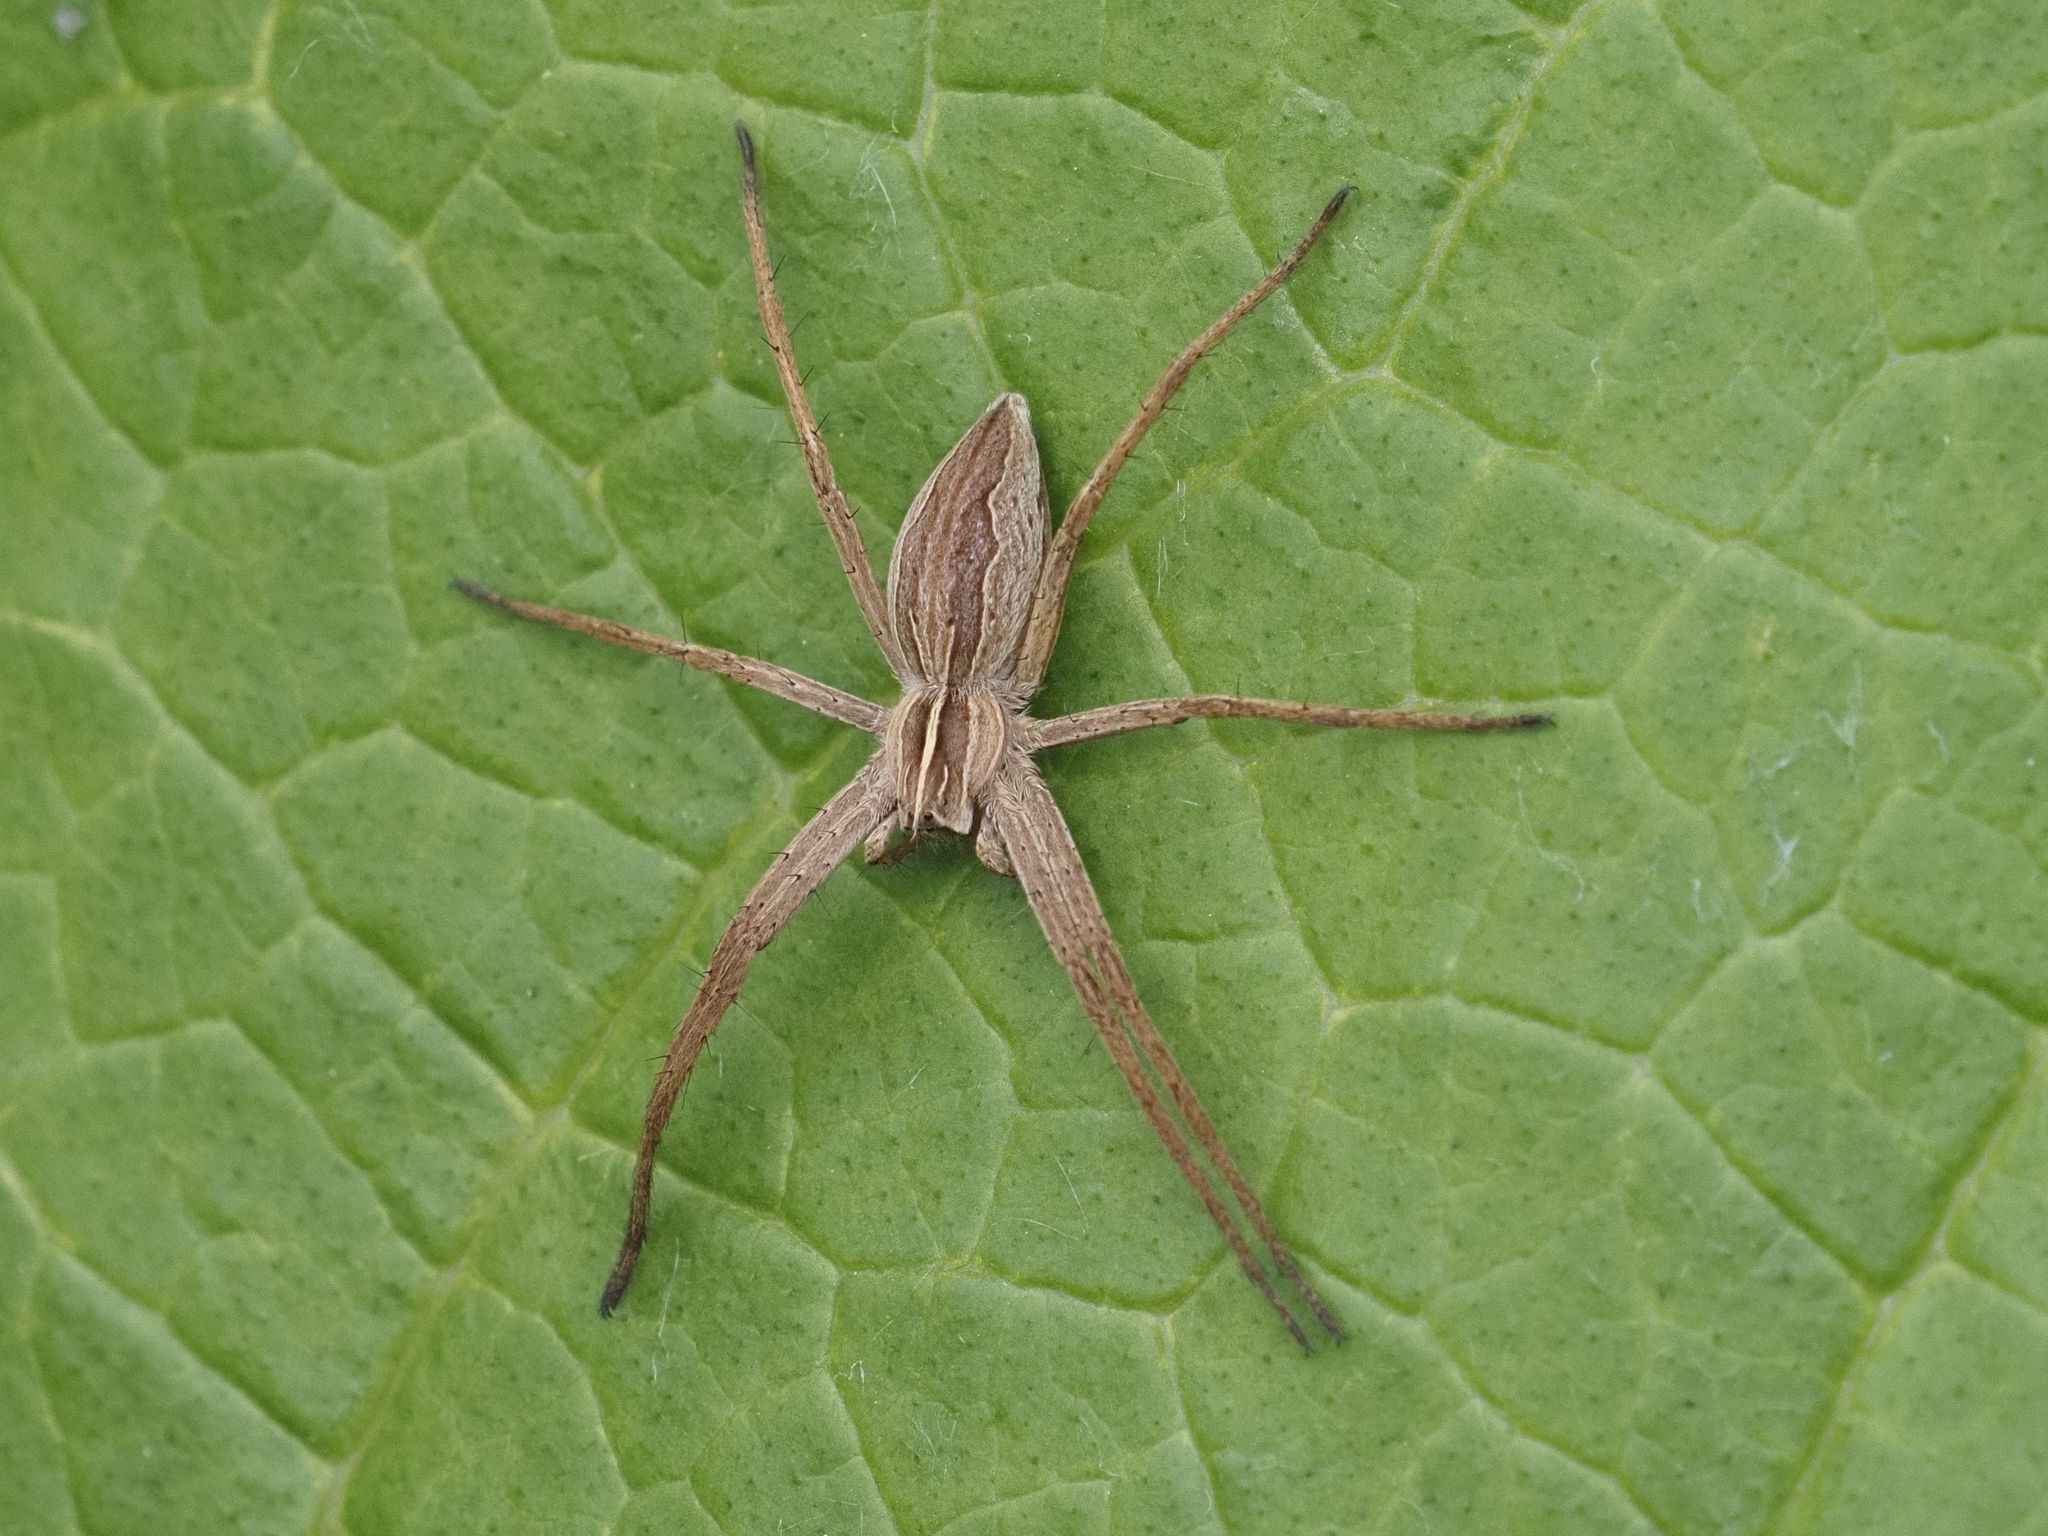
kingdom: Animalia
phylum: Arthropoda
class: Arachnida
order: Araneae
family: Pisauridae
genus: Pisaura
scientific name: Pisaura mirabilis
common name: Tent spider
